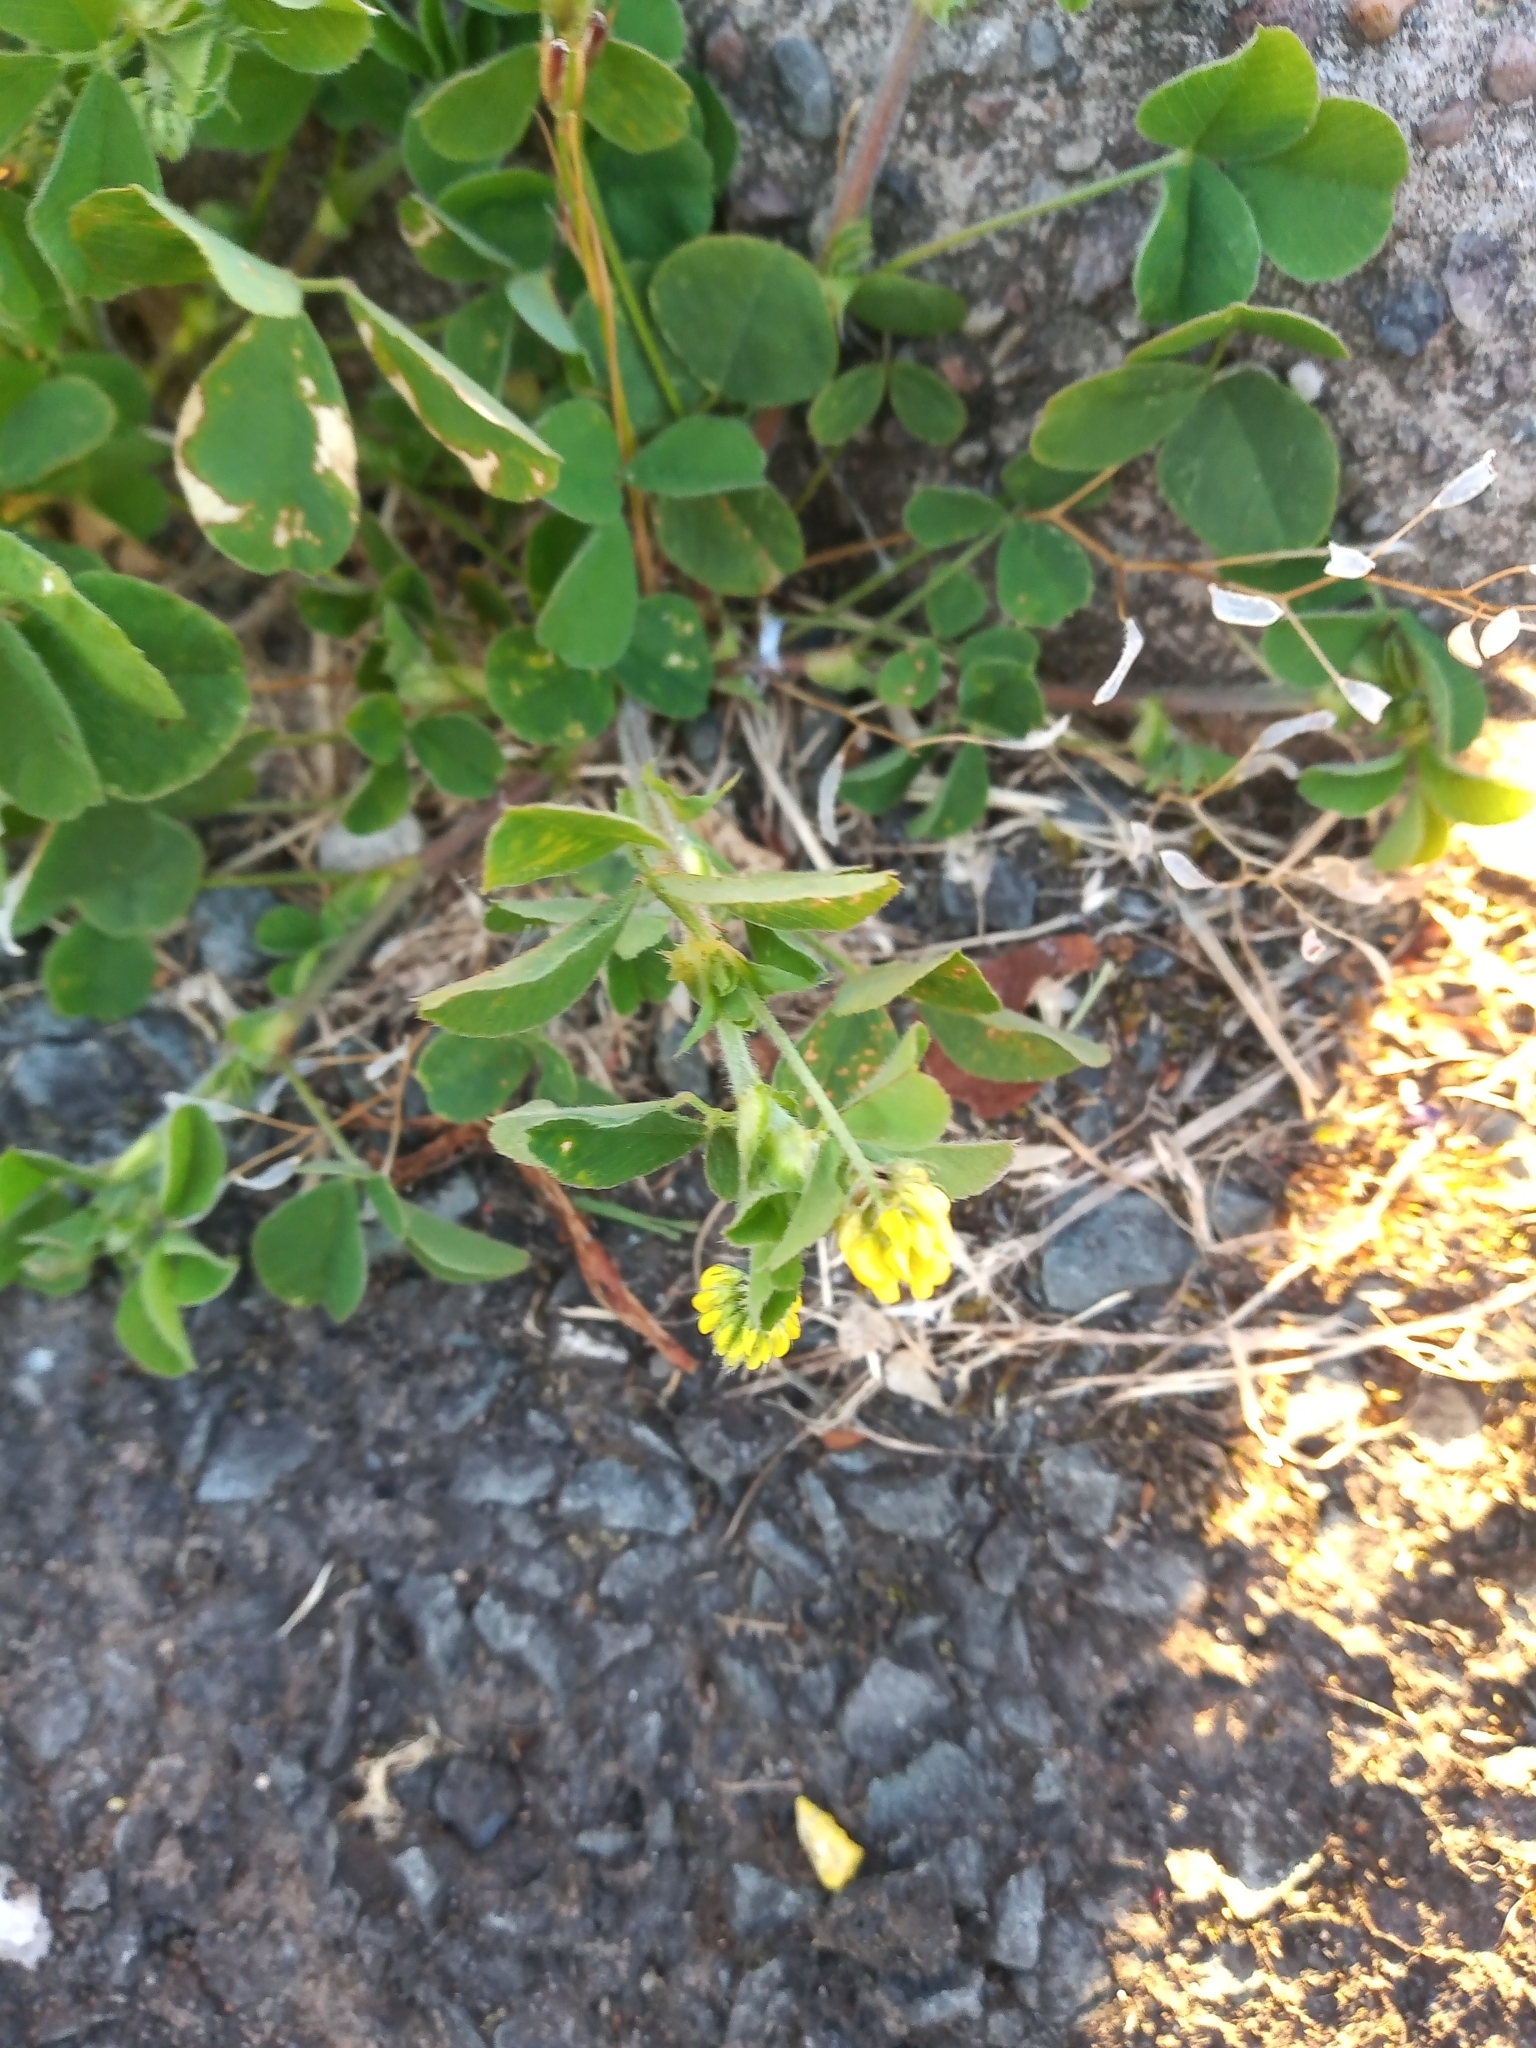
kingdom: Plantae
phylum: Tracheophyta
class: Magnoliopsida
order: Fabales
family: Fabaceae
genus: Trifolium
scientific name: Trifolium dubium
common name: Suckling clover
